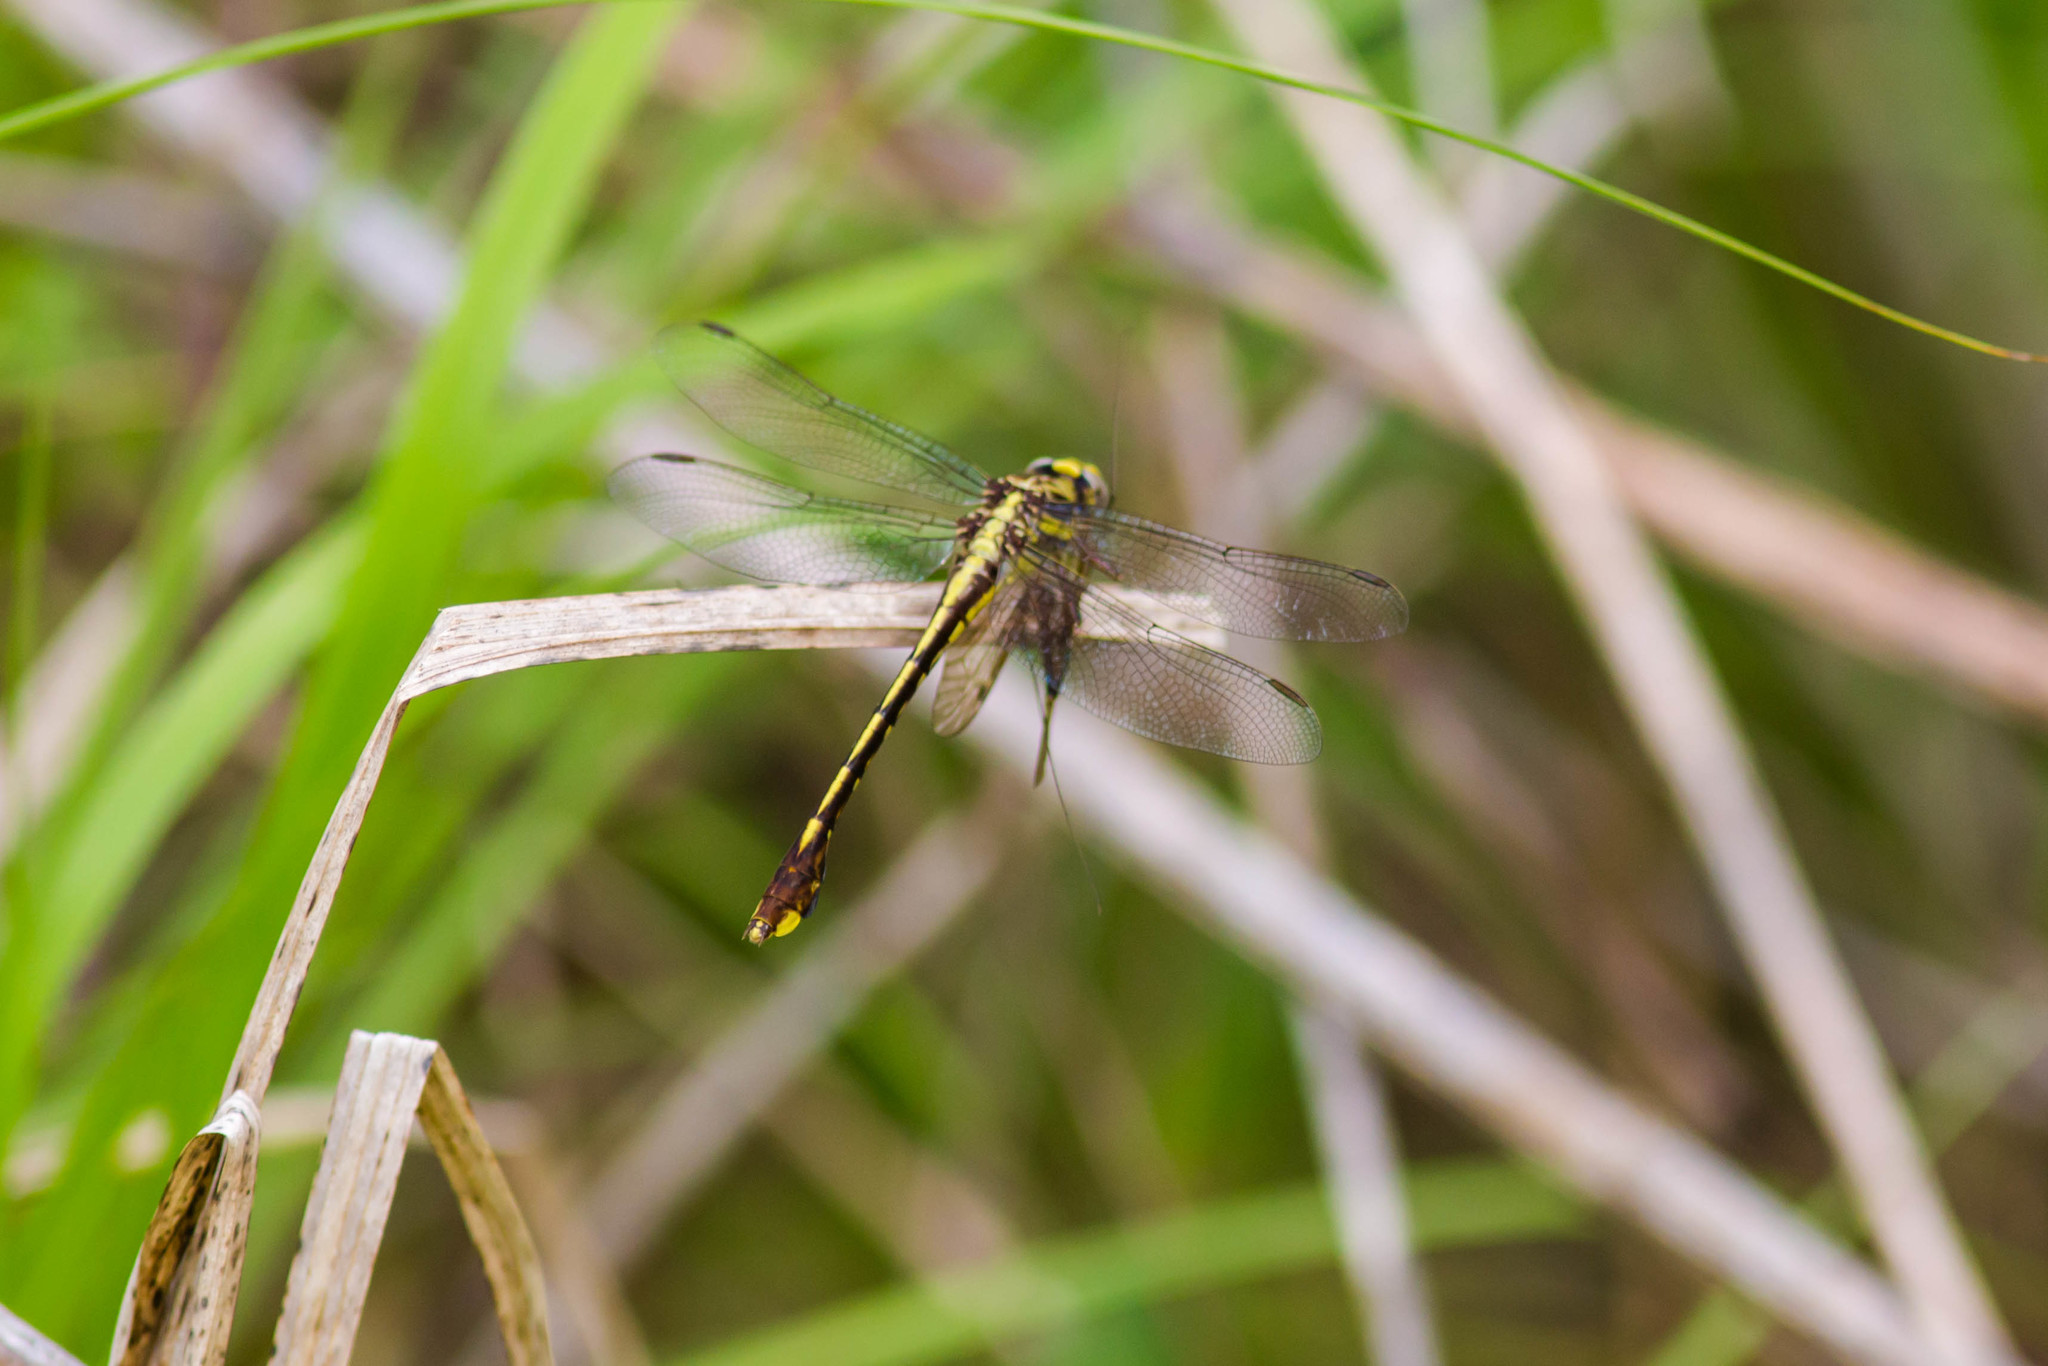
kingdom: Animalia
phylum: Arthropoda
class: Insecta
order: Odonata
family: Gomphidae
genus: Gomphurus
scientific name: Gomphurus hybridus
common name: Cocoa clubtail
